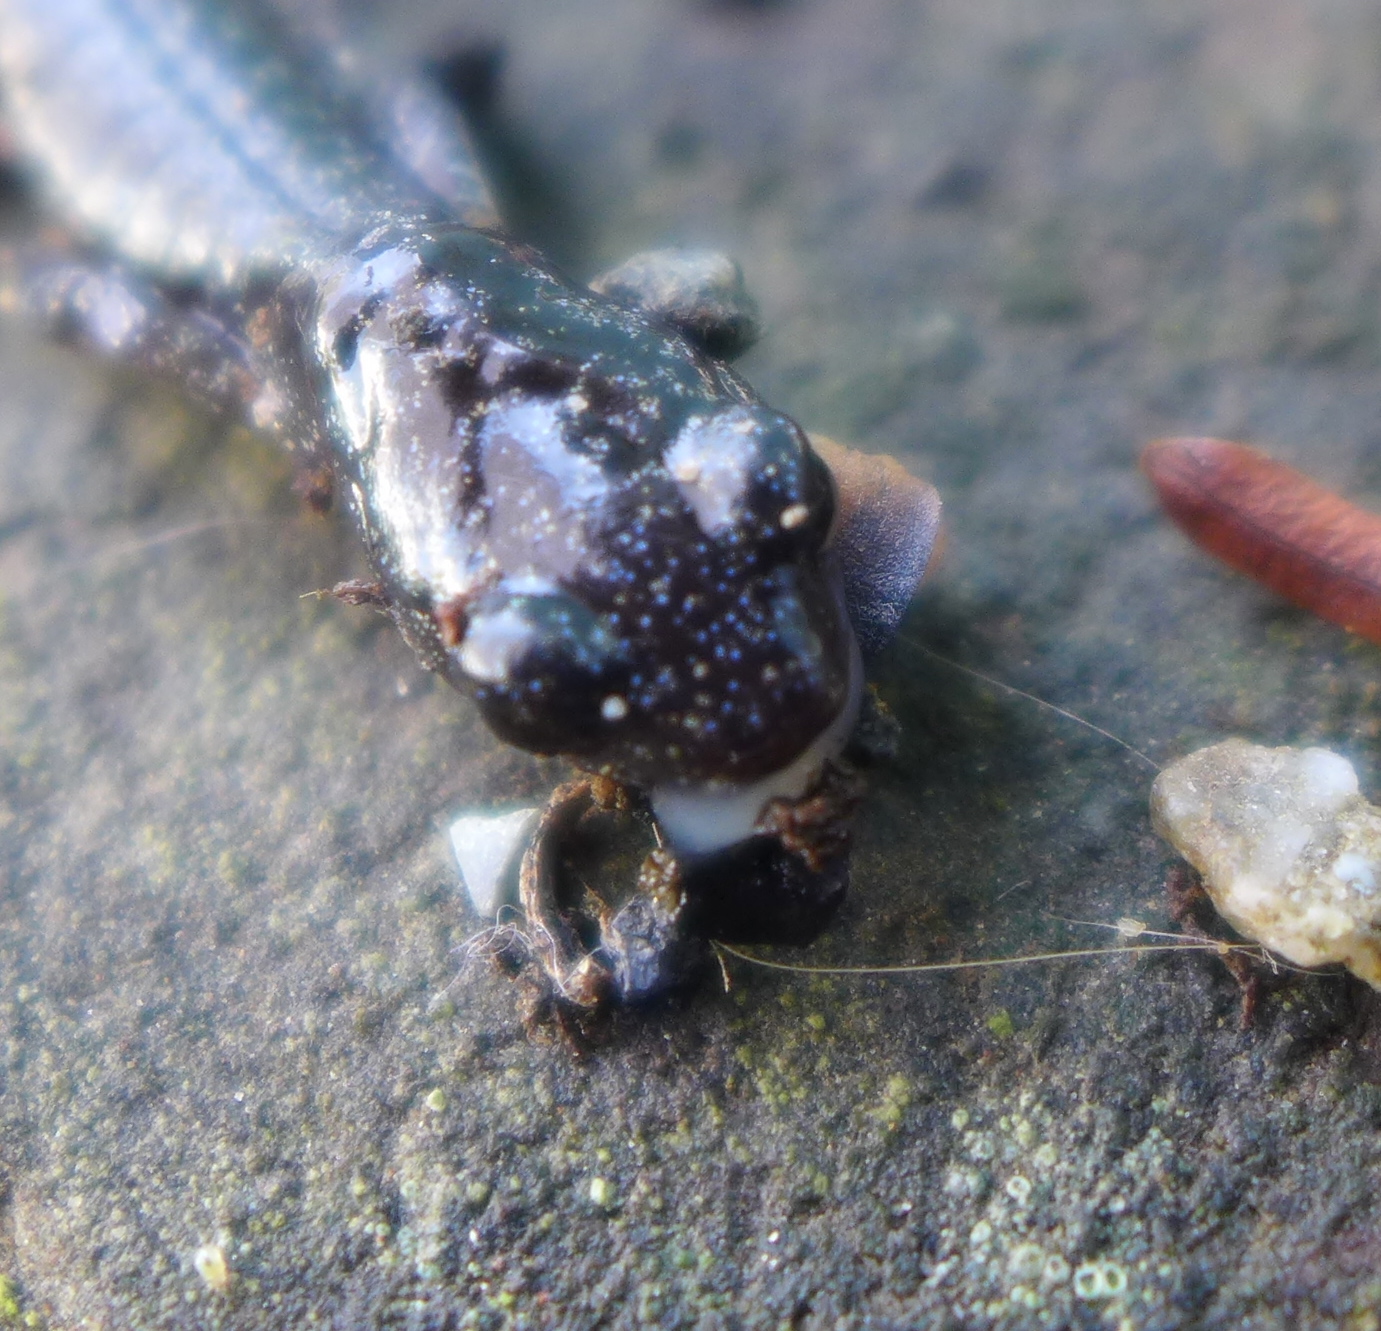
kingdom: Animalia
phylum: Chordata
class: Amphibia
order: Caudata
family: Plethodontidae
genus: Aneides
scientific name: Aneides lugubris
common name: Arboreal salamander
